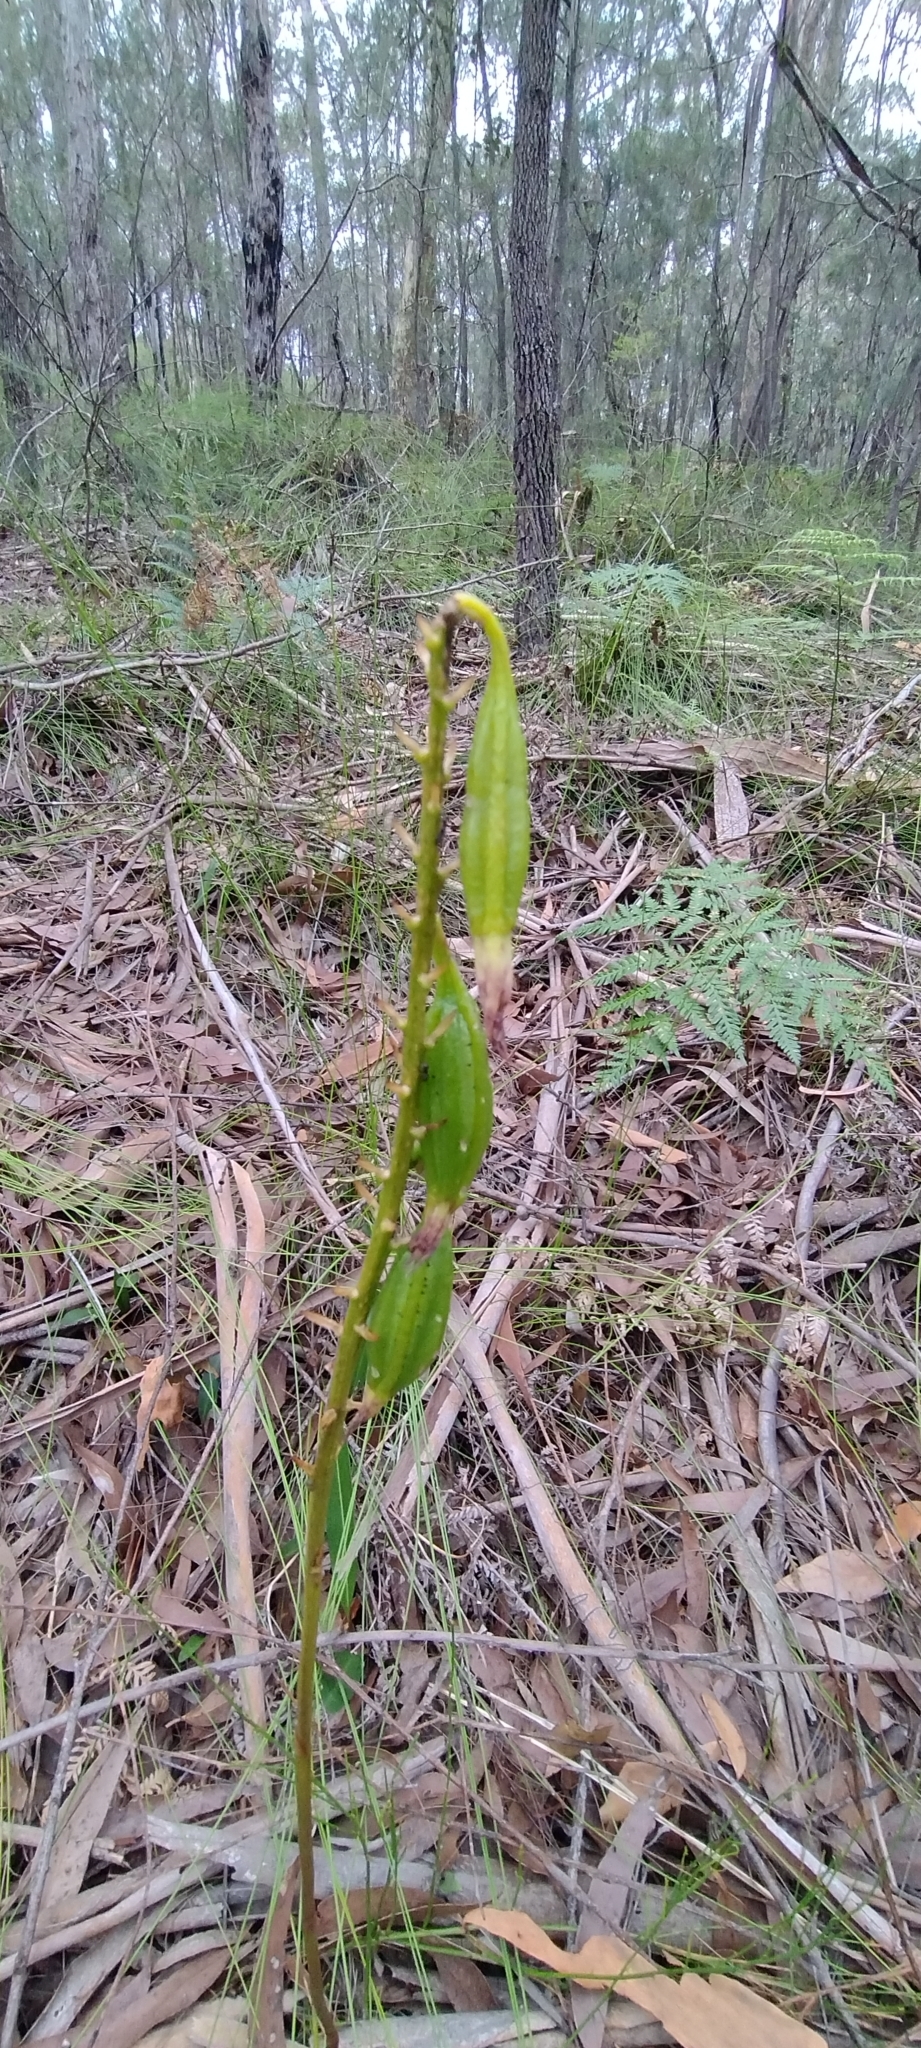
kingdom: Plantae
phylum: Tracheophyta
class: Liliopsida
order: Asparagales
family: Orchidaceae
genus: Dipodium
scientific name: Dipodium variegatum
